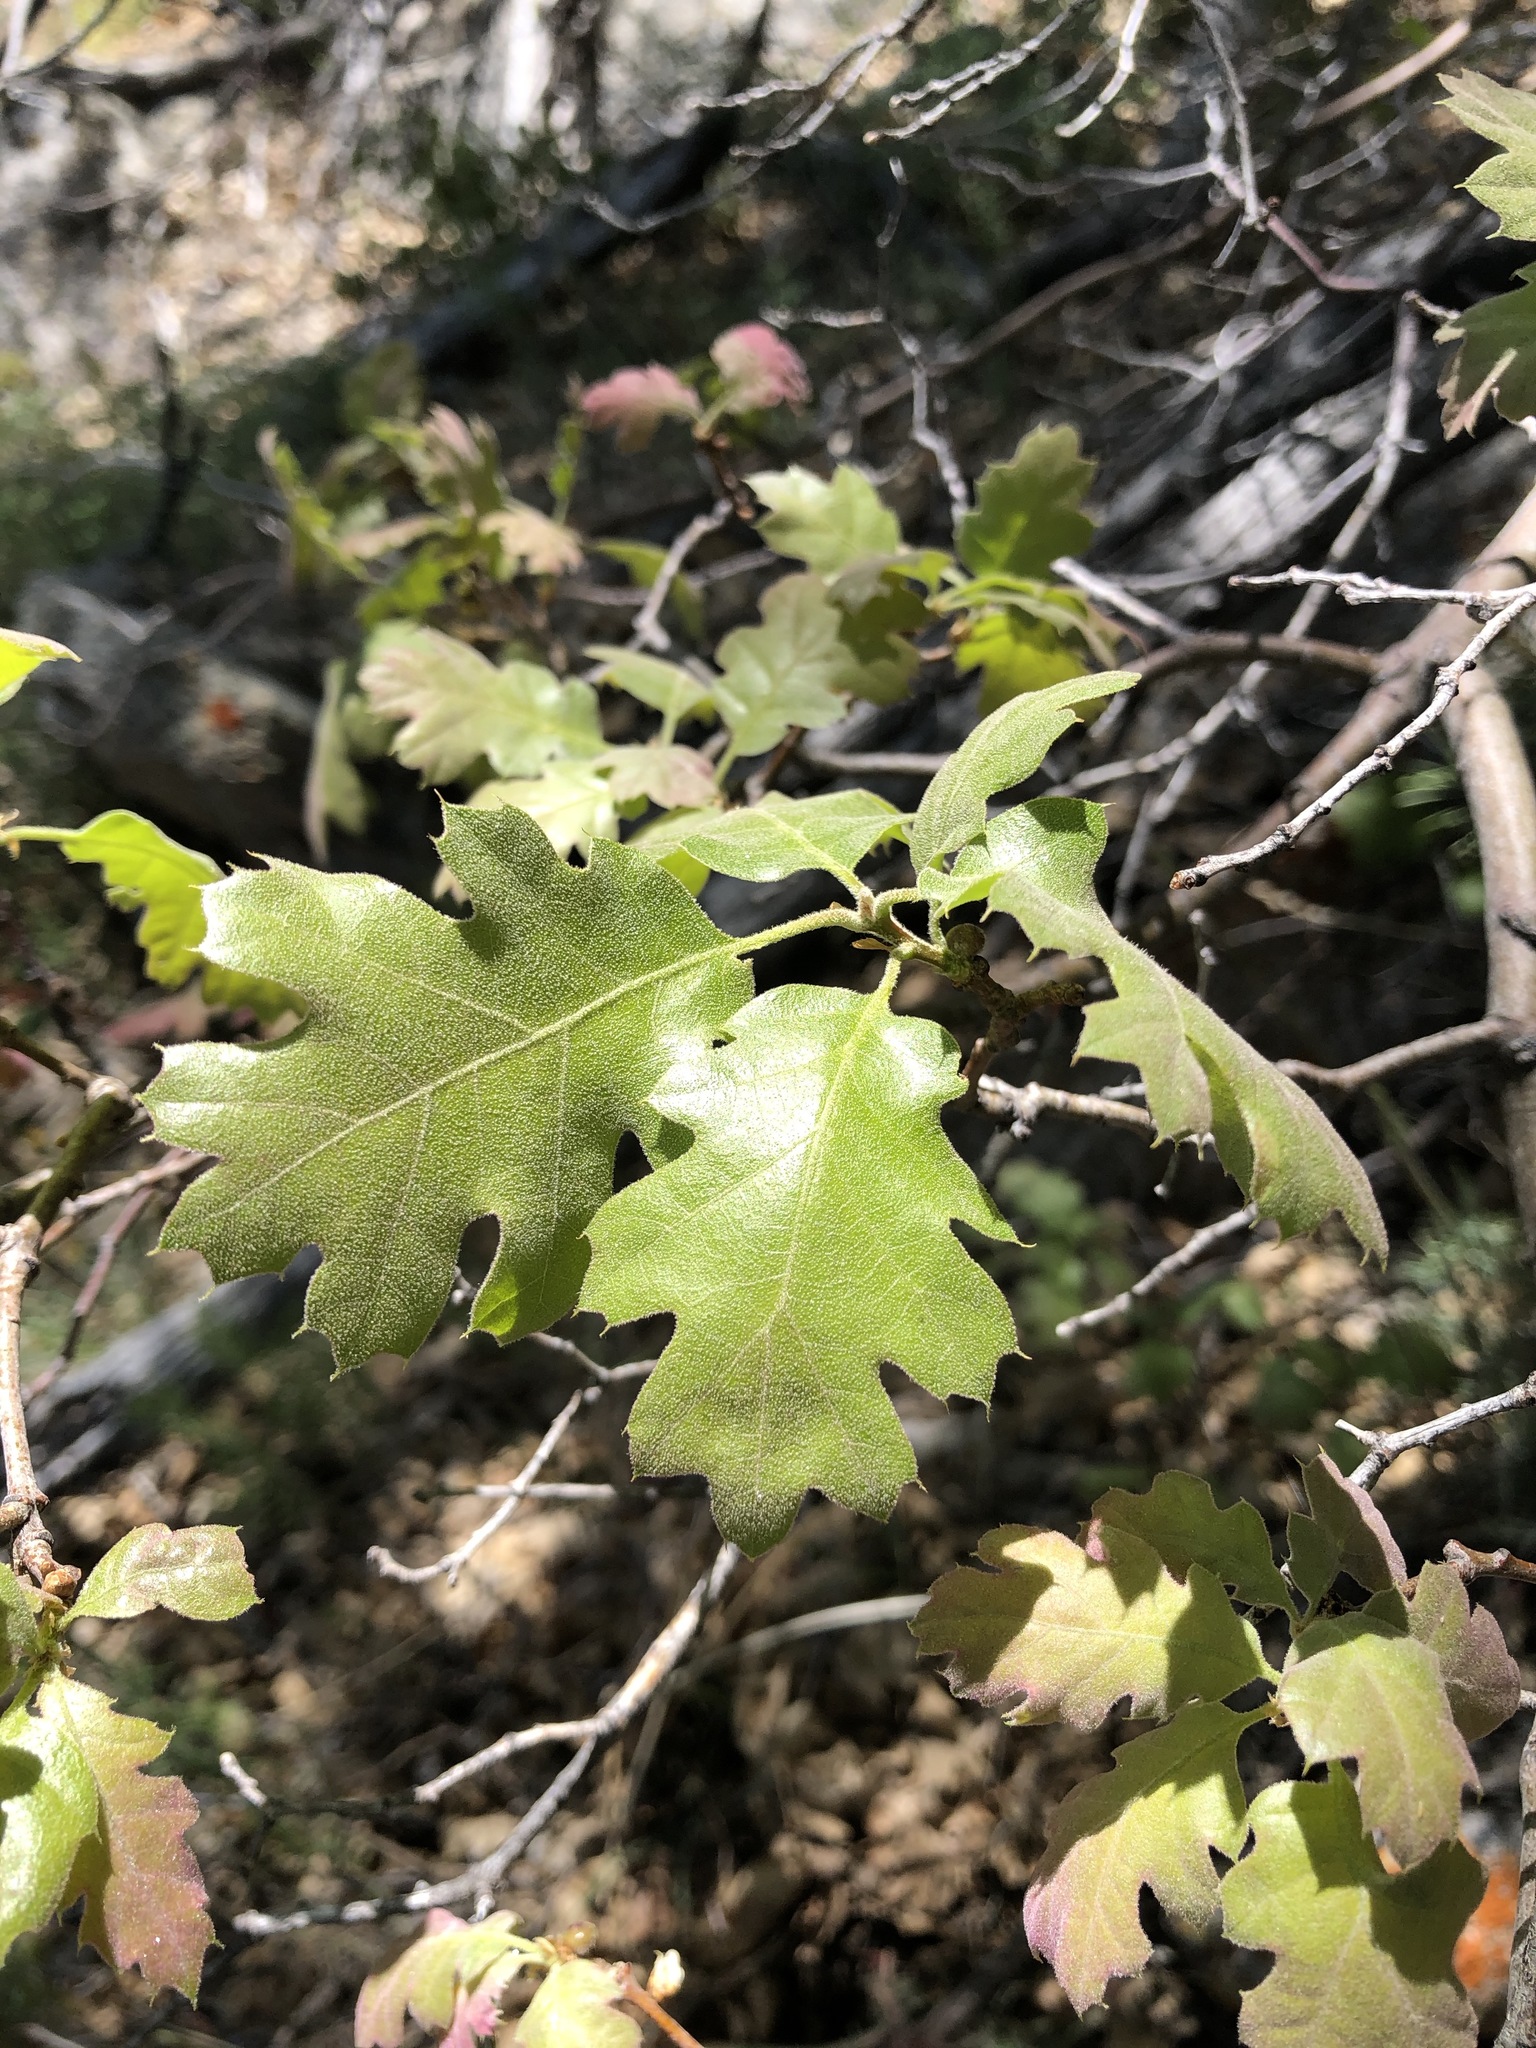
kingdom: Plantae
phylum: Tracheophyta
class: Magnoliopsida
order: Fagales
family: Fagaceae
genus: Quercus
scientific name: Quercus kelloggii
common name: California black oak
